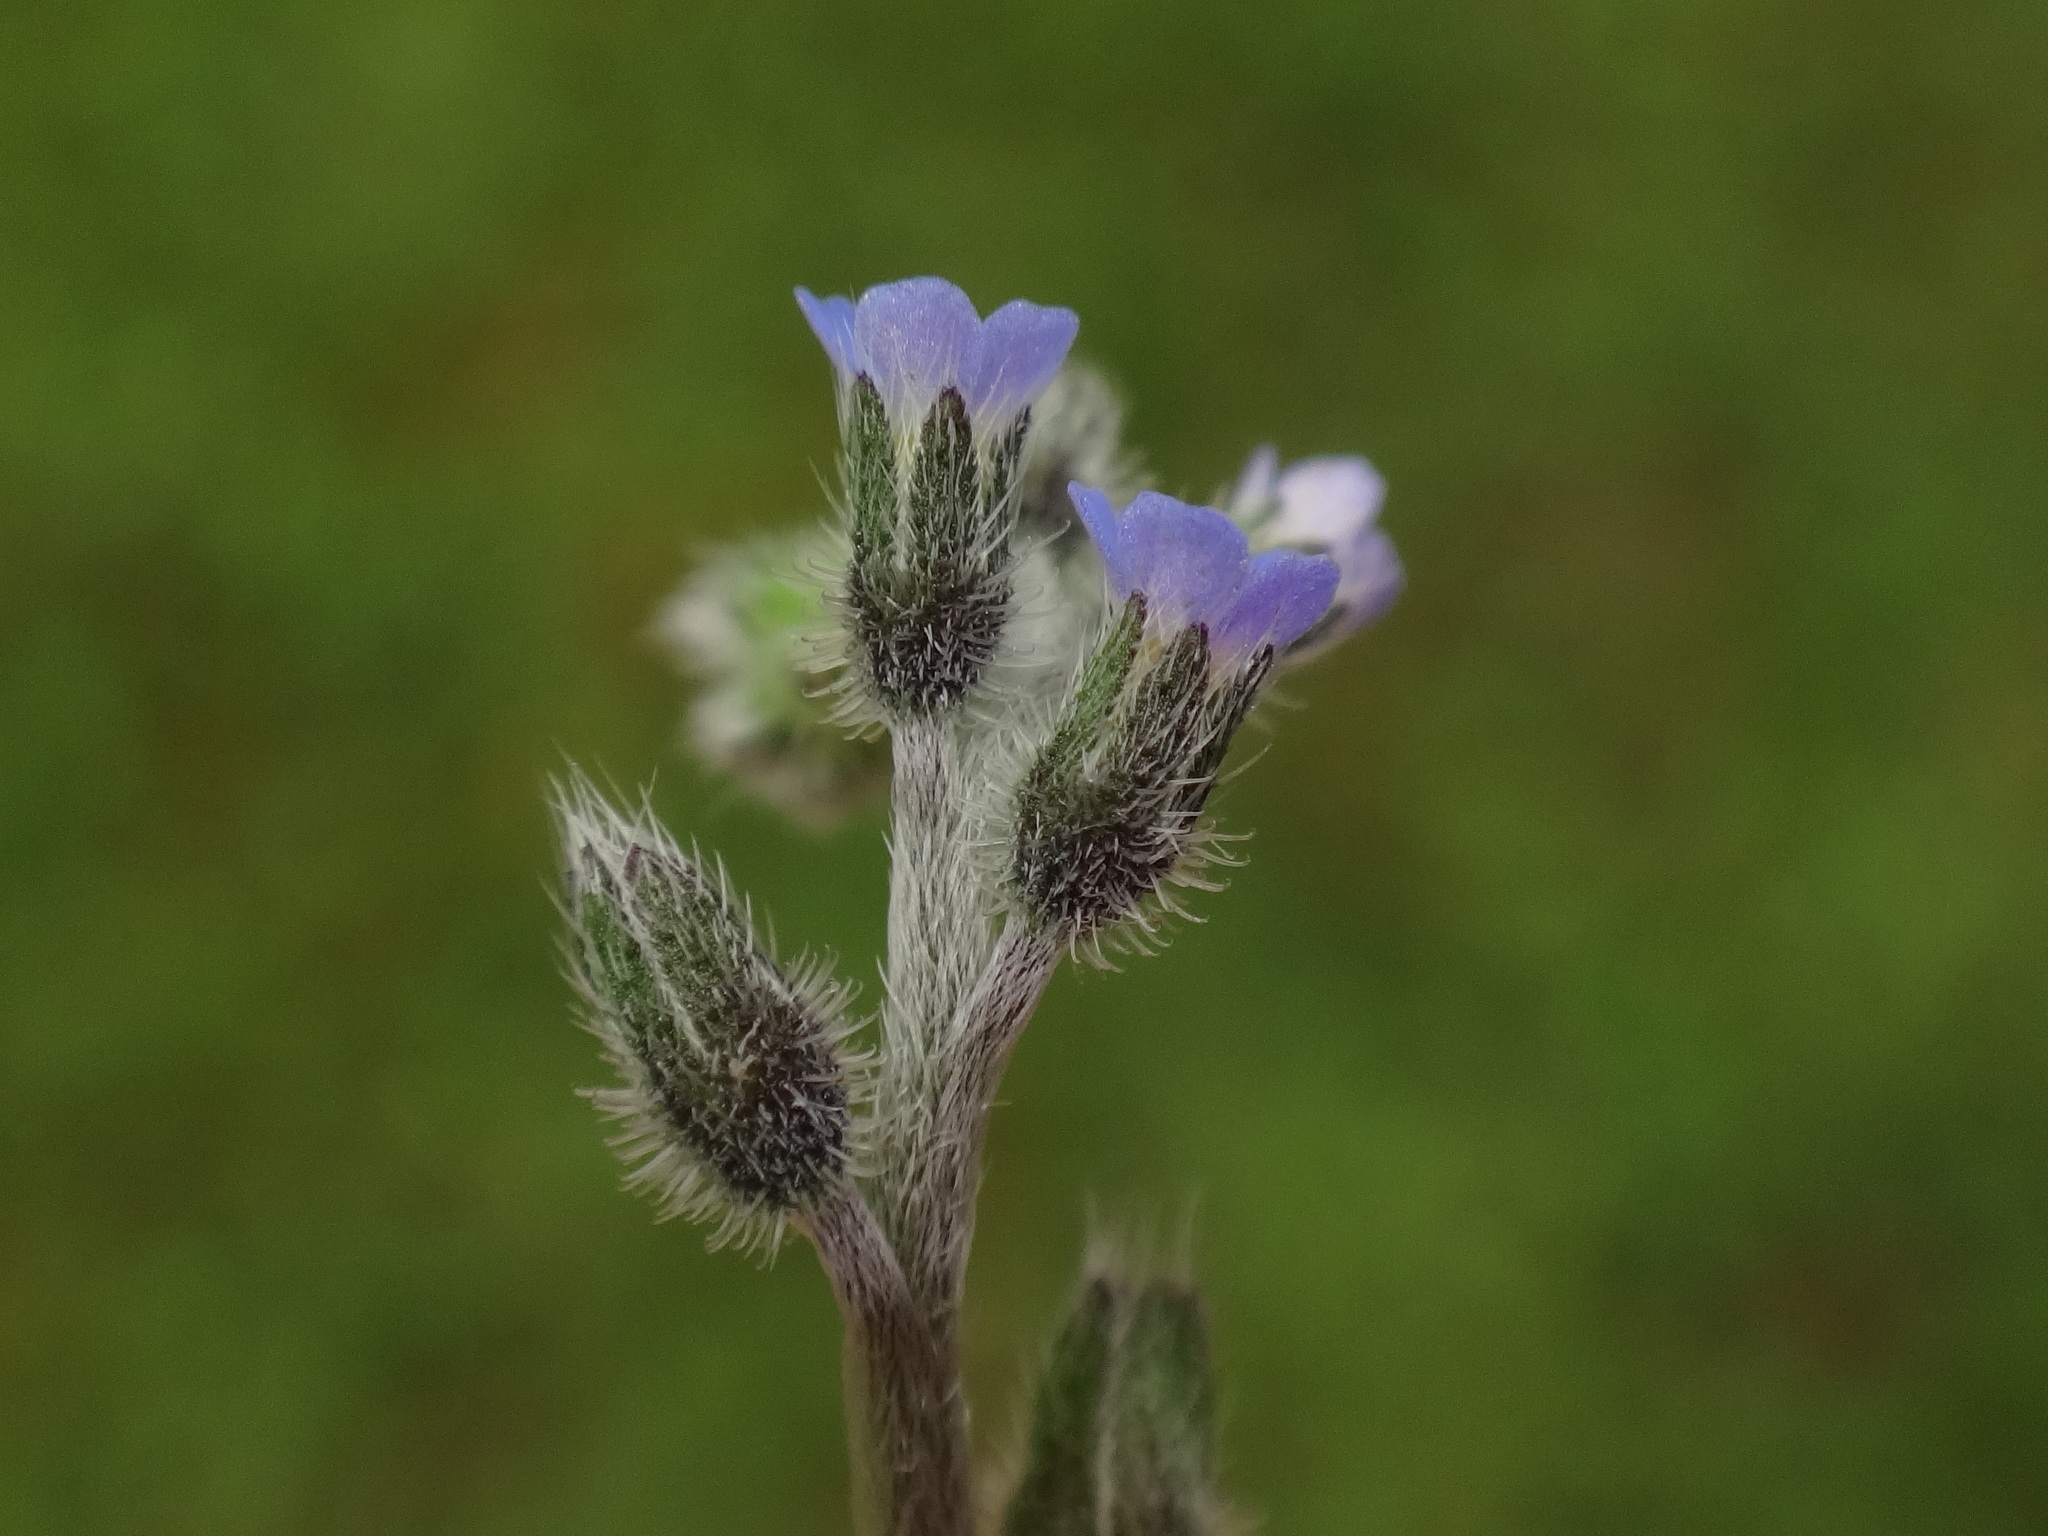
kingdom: Plantae
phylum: Tracheophyta
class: Magnoliopsida
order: Boraginales
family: Boraginaceae
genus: Myosotis
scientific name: Myosotis arvensis
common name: Field forget-me-not
